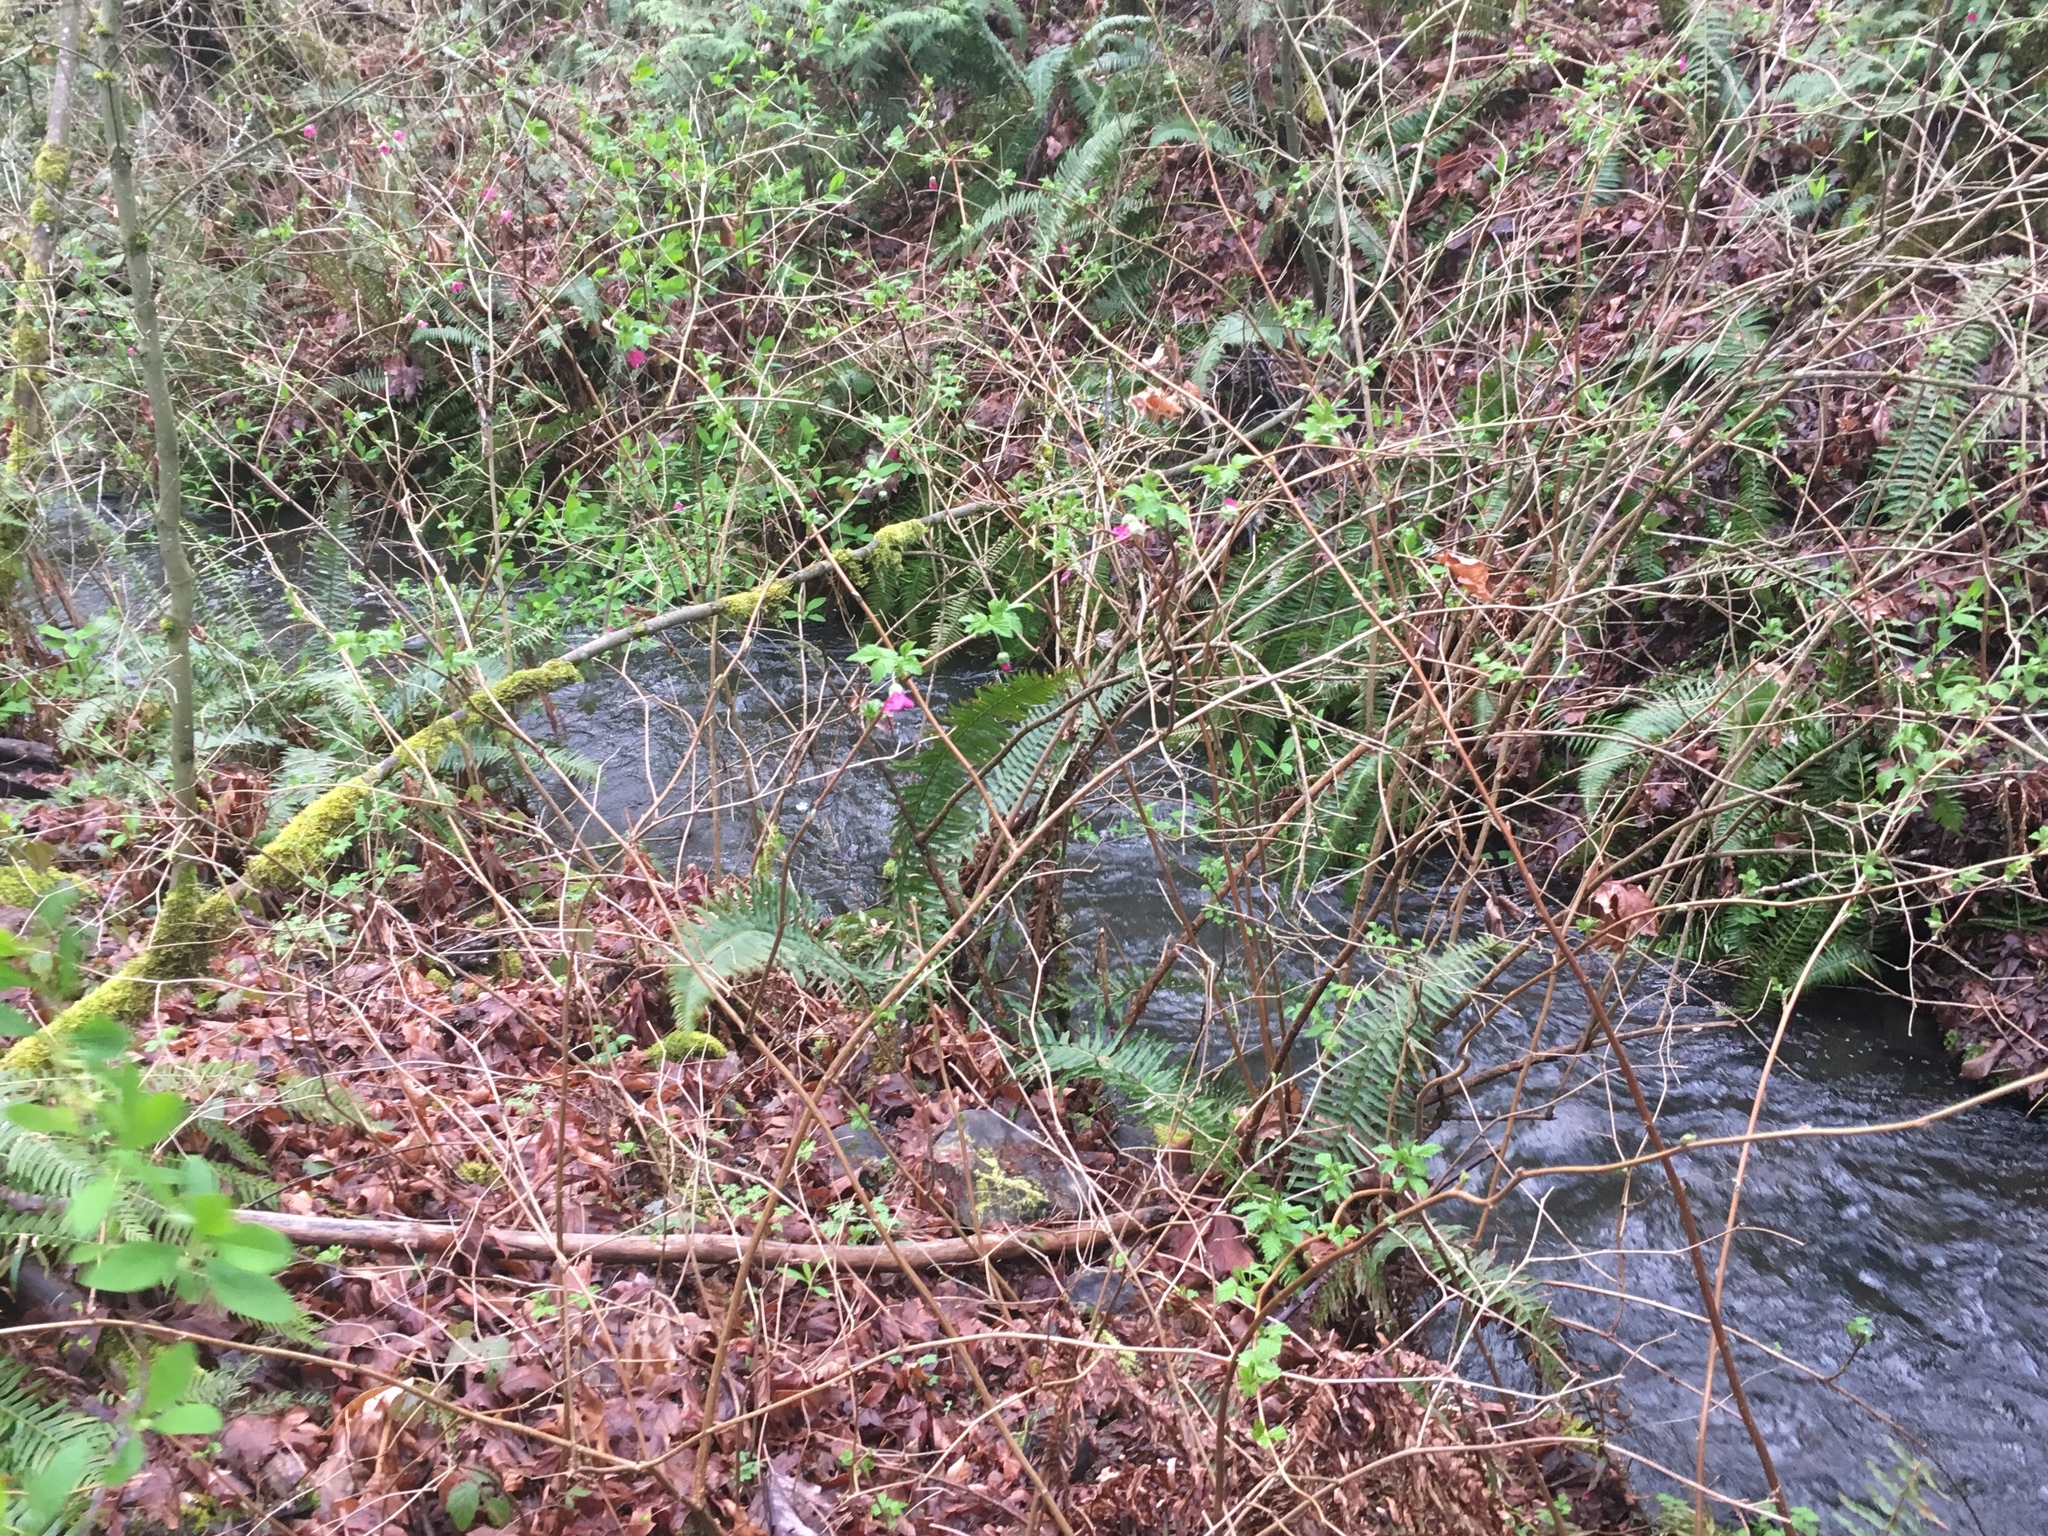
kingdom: Plantae
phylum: Tracheophyta
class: Magnoliopsida
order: Rosales
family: Rosaceae
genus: Rubus
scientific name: Rubus spectabilis
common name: Salmonberry
